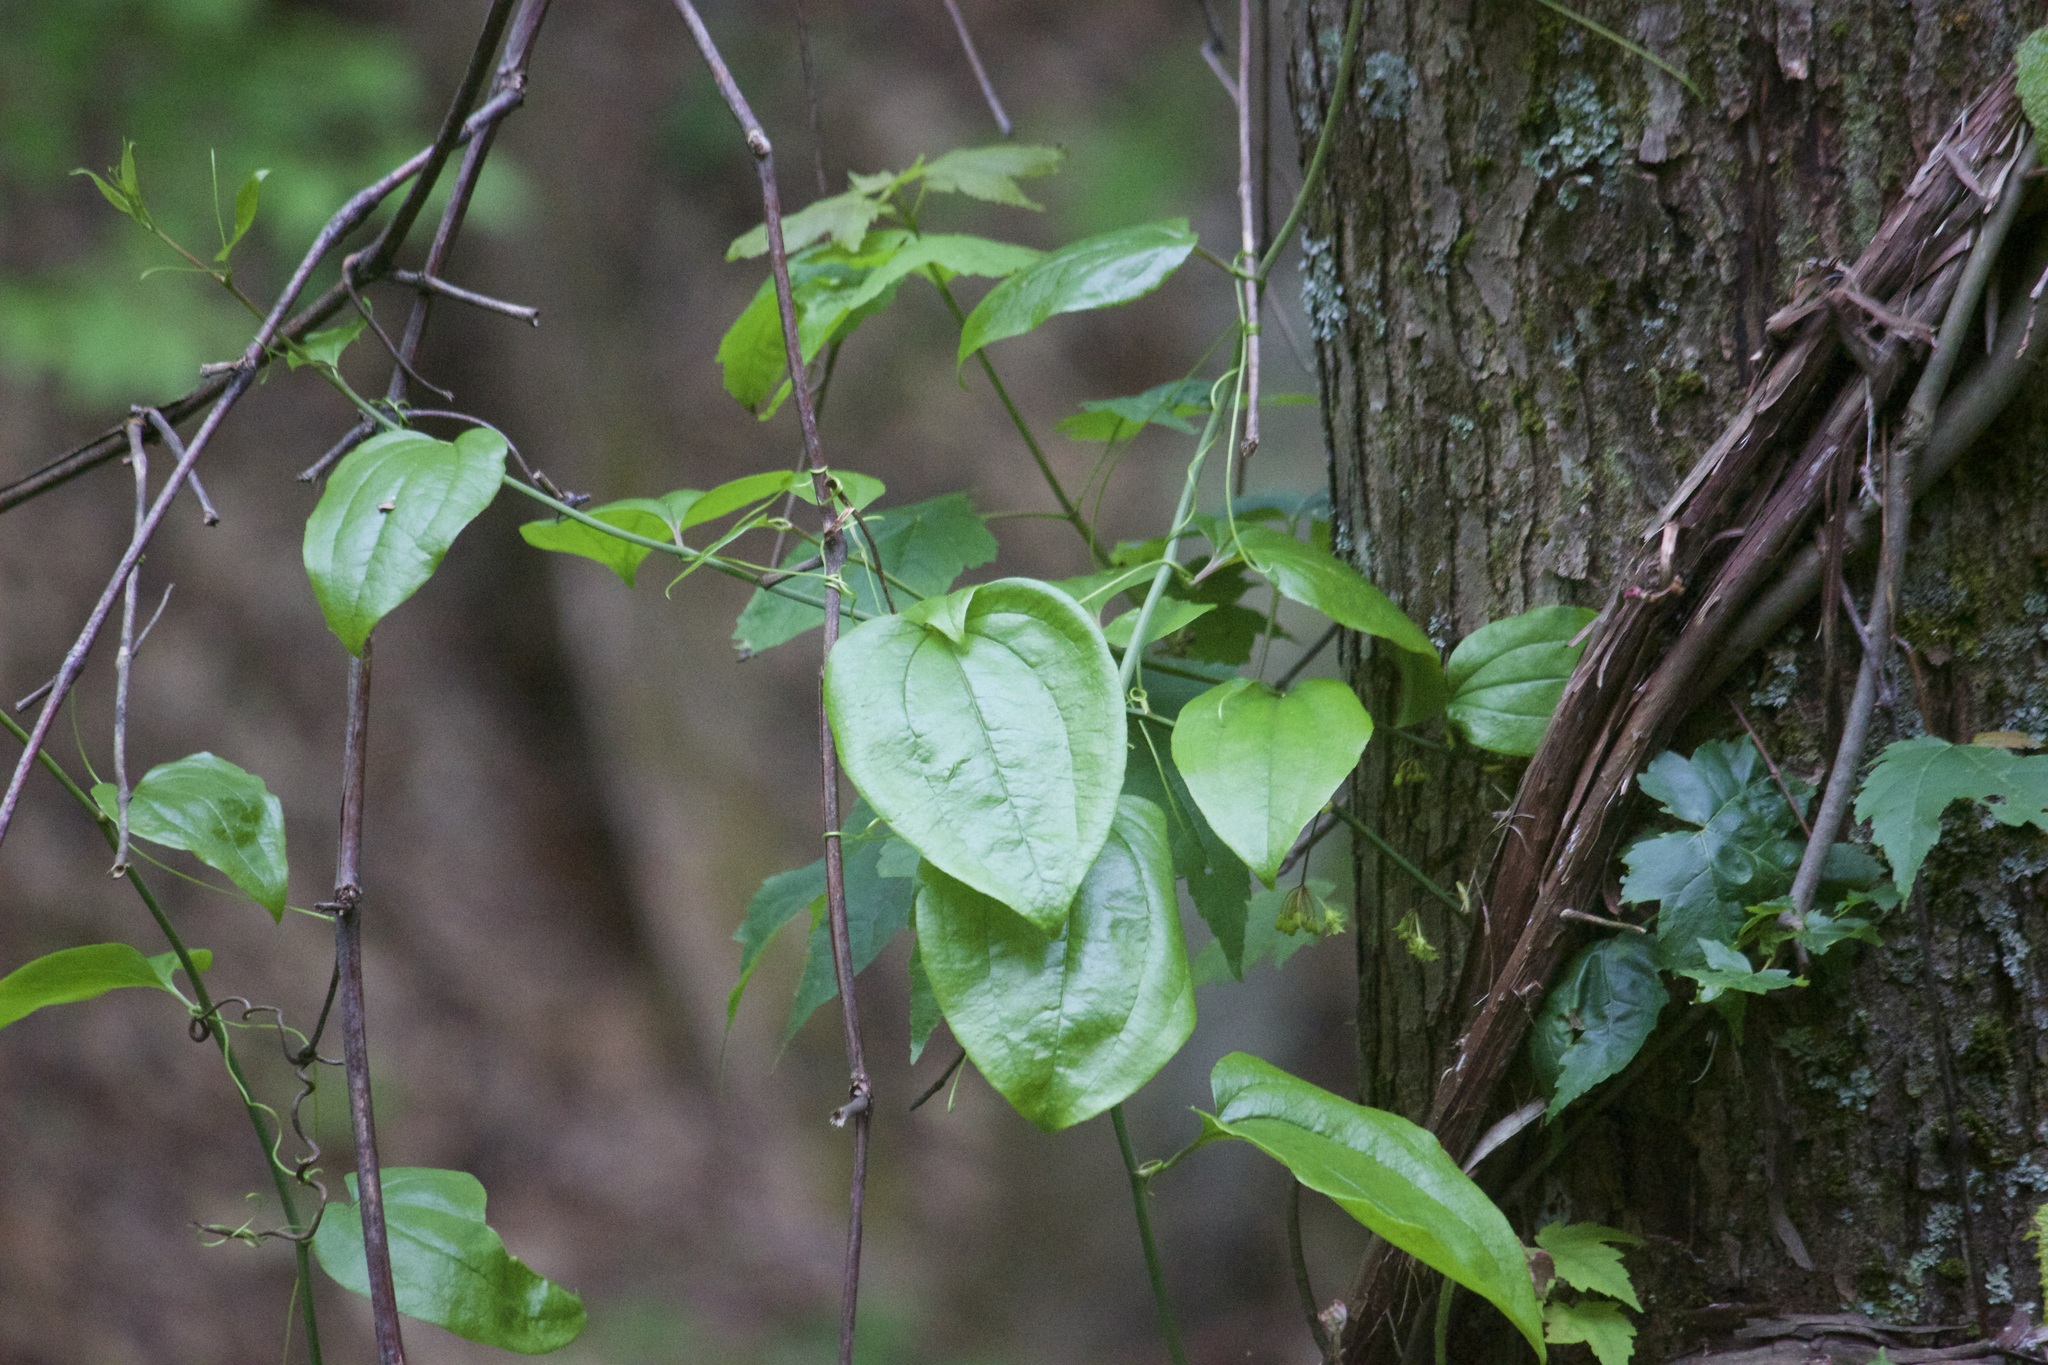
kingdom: Plantae
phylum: Tracheophyta
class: Liliopsida
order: Liliales
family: Smilacaceae
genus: Smilax
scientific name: Smilax tamnoides
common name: Hellfetter
